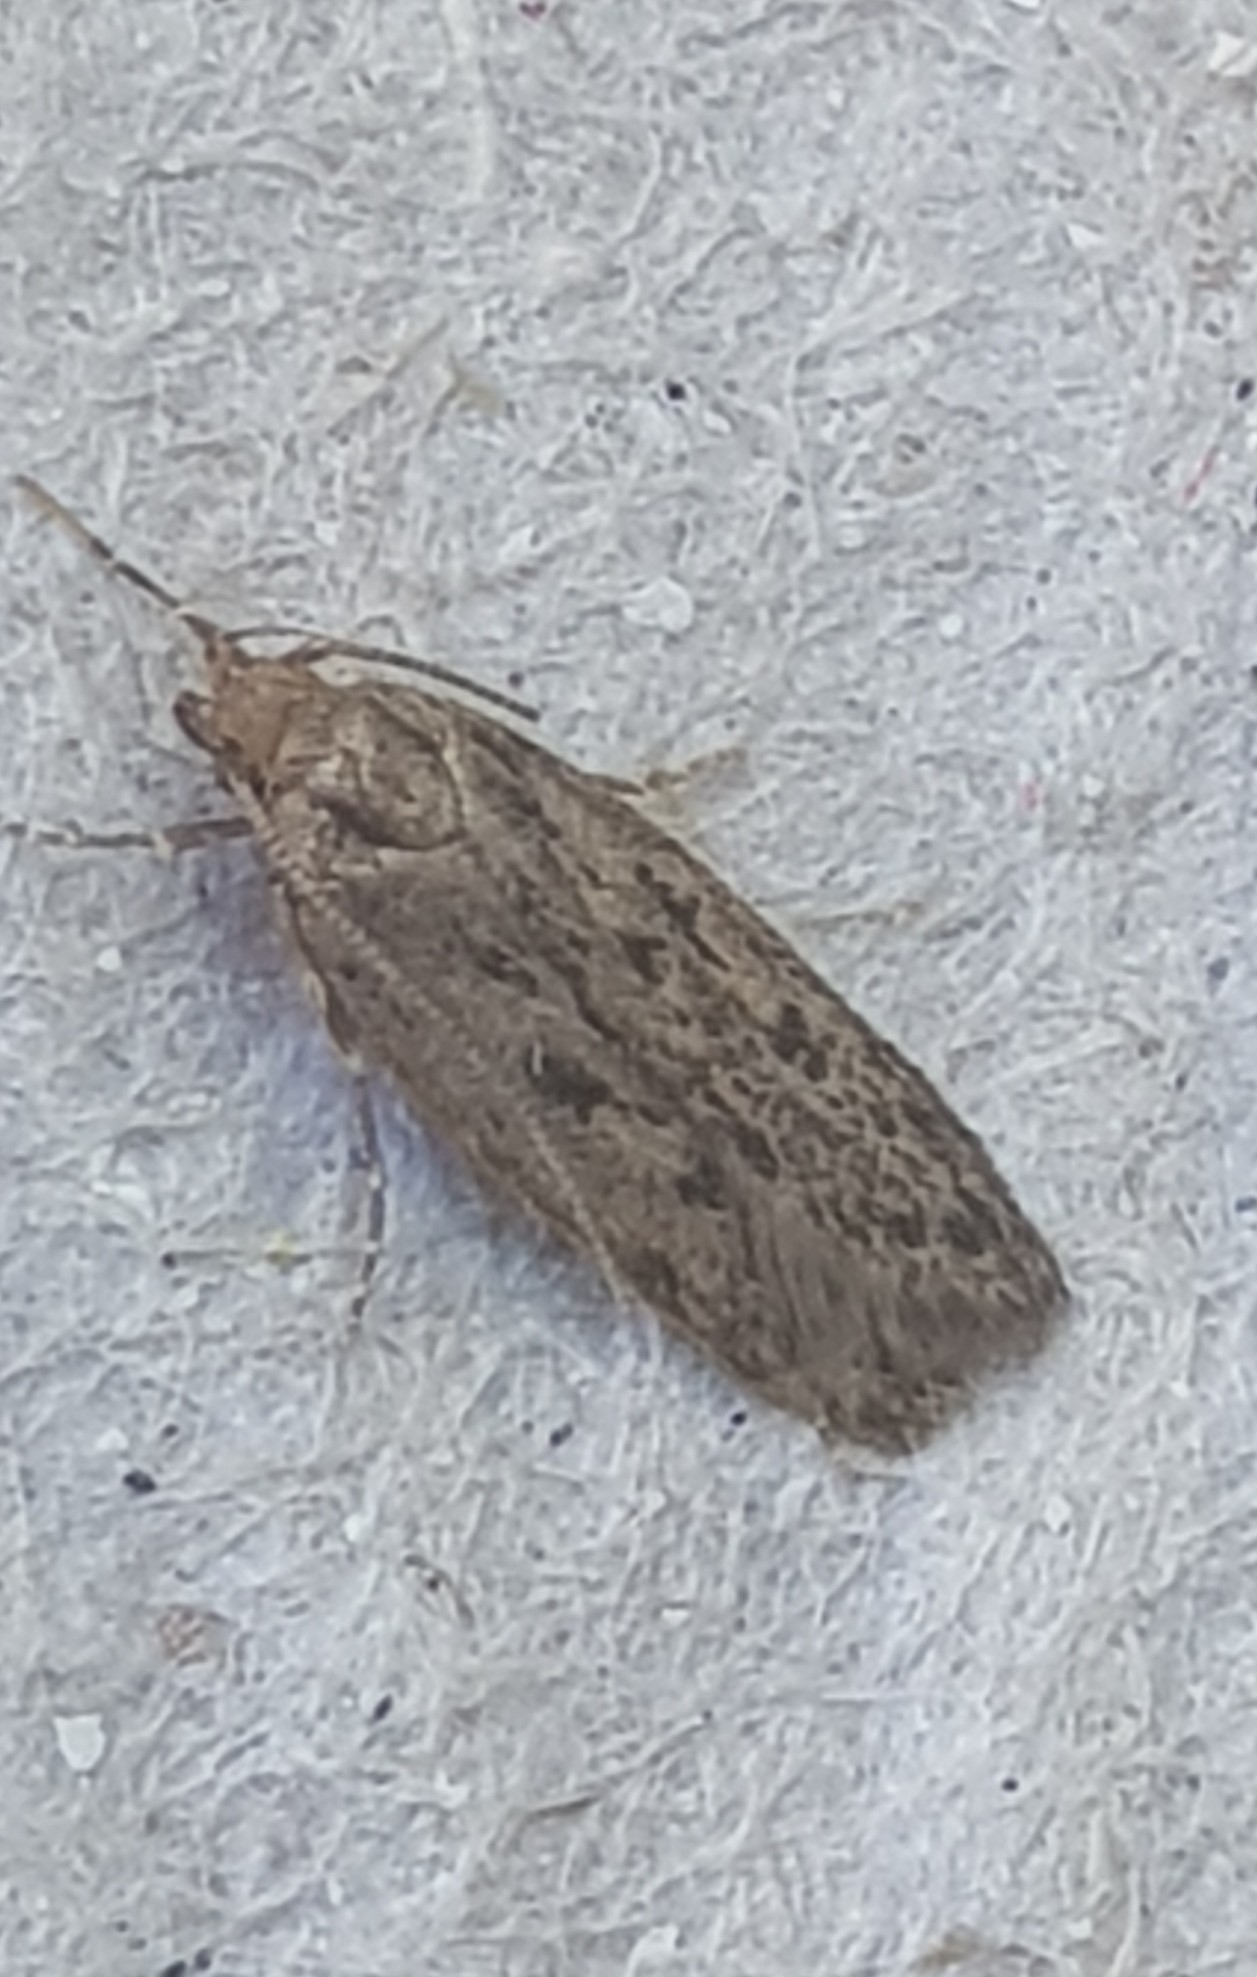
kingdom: Animalia
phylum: Arthropoda
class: Insecta
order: Lepidoptera
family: Oecophoridae
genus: Hofmannophila
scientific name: Hofmannophila pseudospretella
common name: Brown house moth
